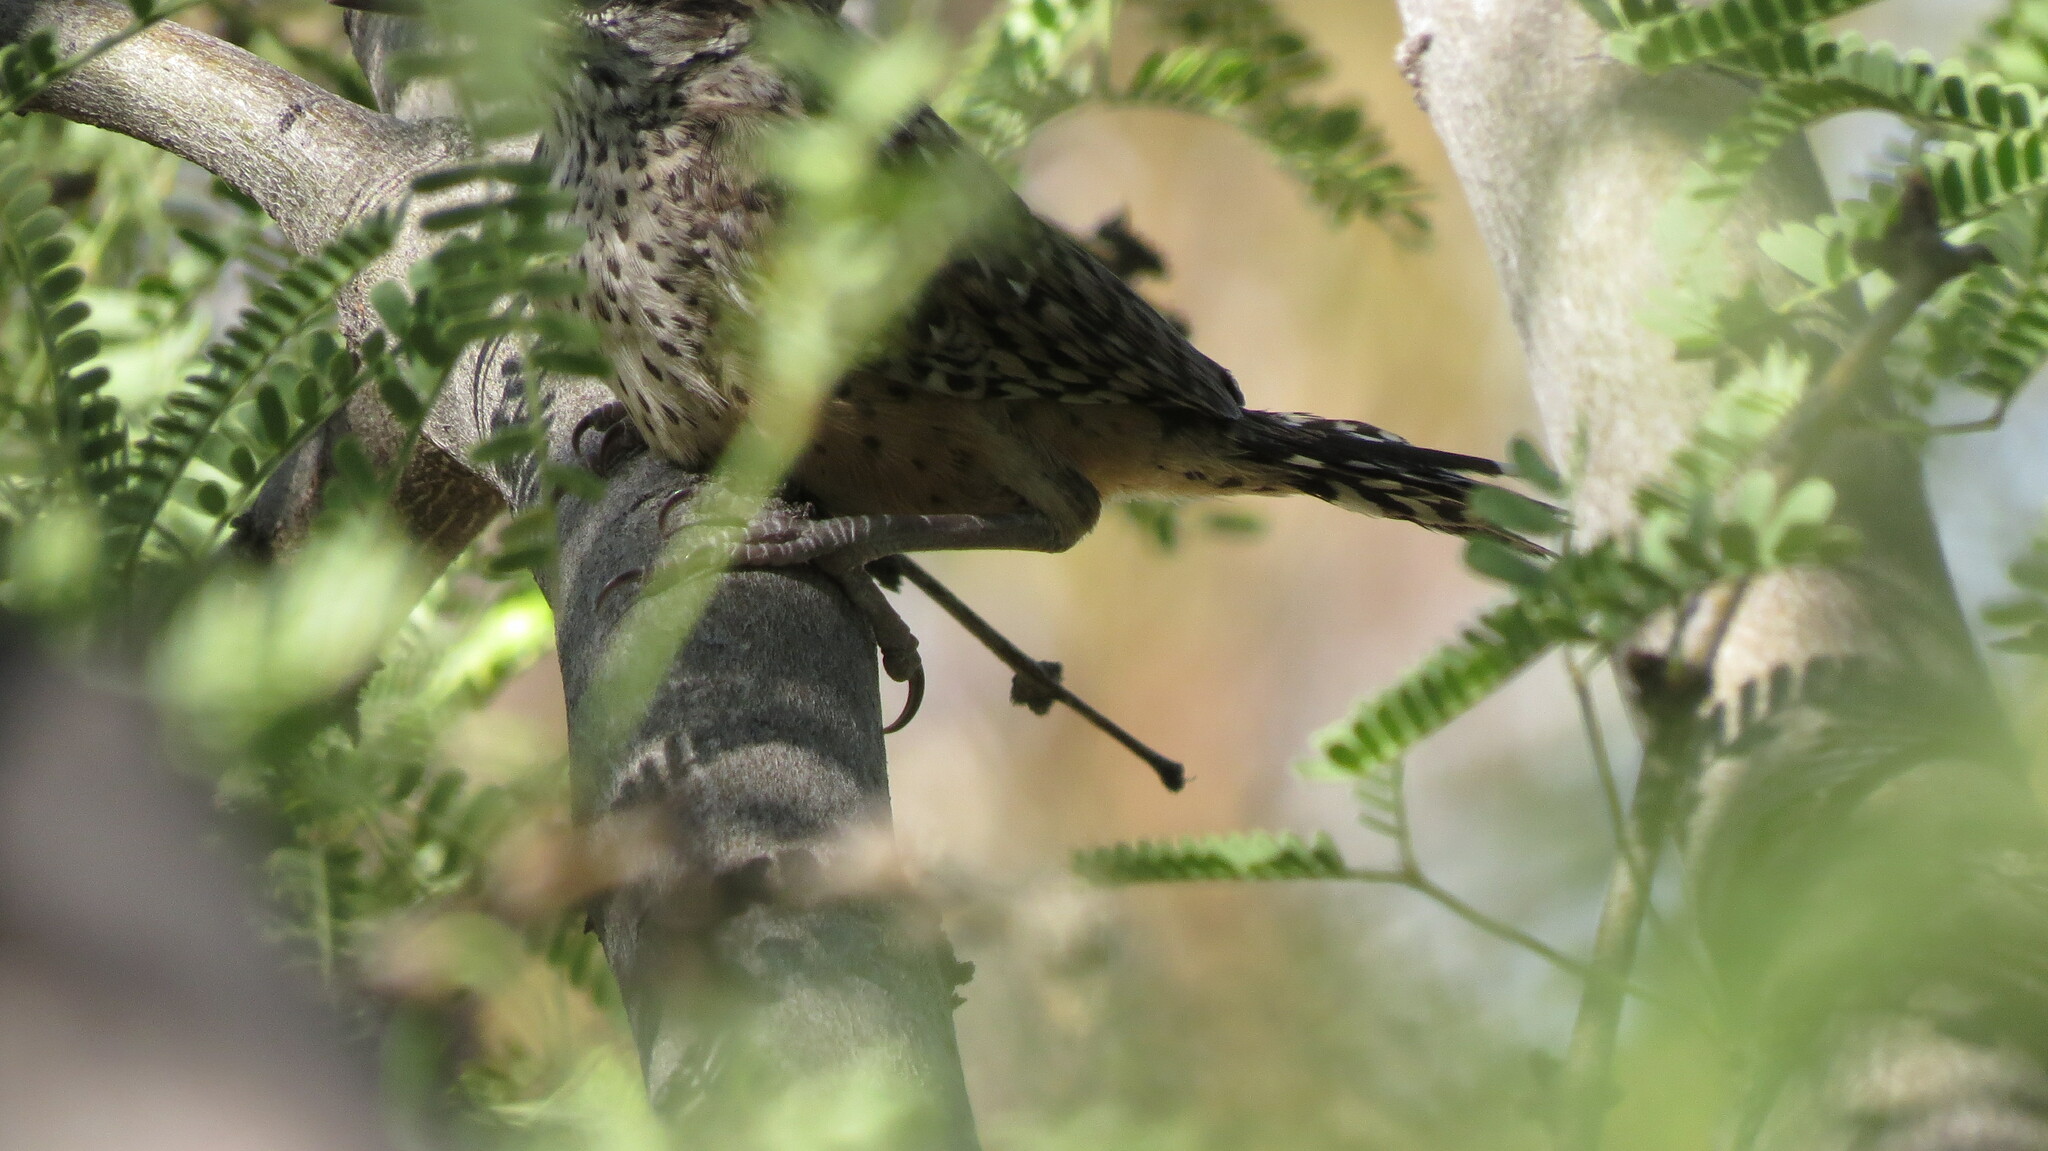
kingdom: Animalia
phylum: Chordata
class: Aves
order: Passeriformes
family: Troglodytidae
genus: Campylorhynchus
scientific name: Campylorhynchus brunneicapillus
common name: Cactus wren
